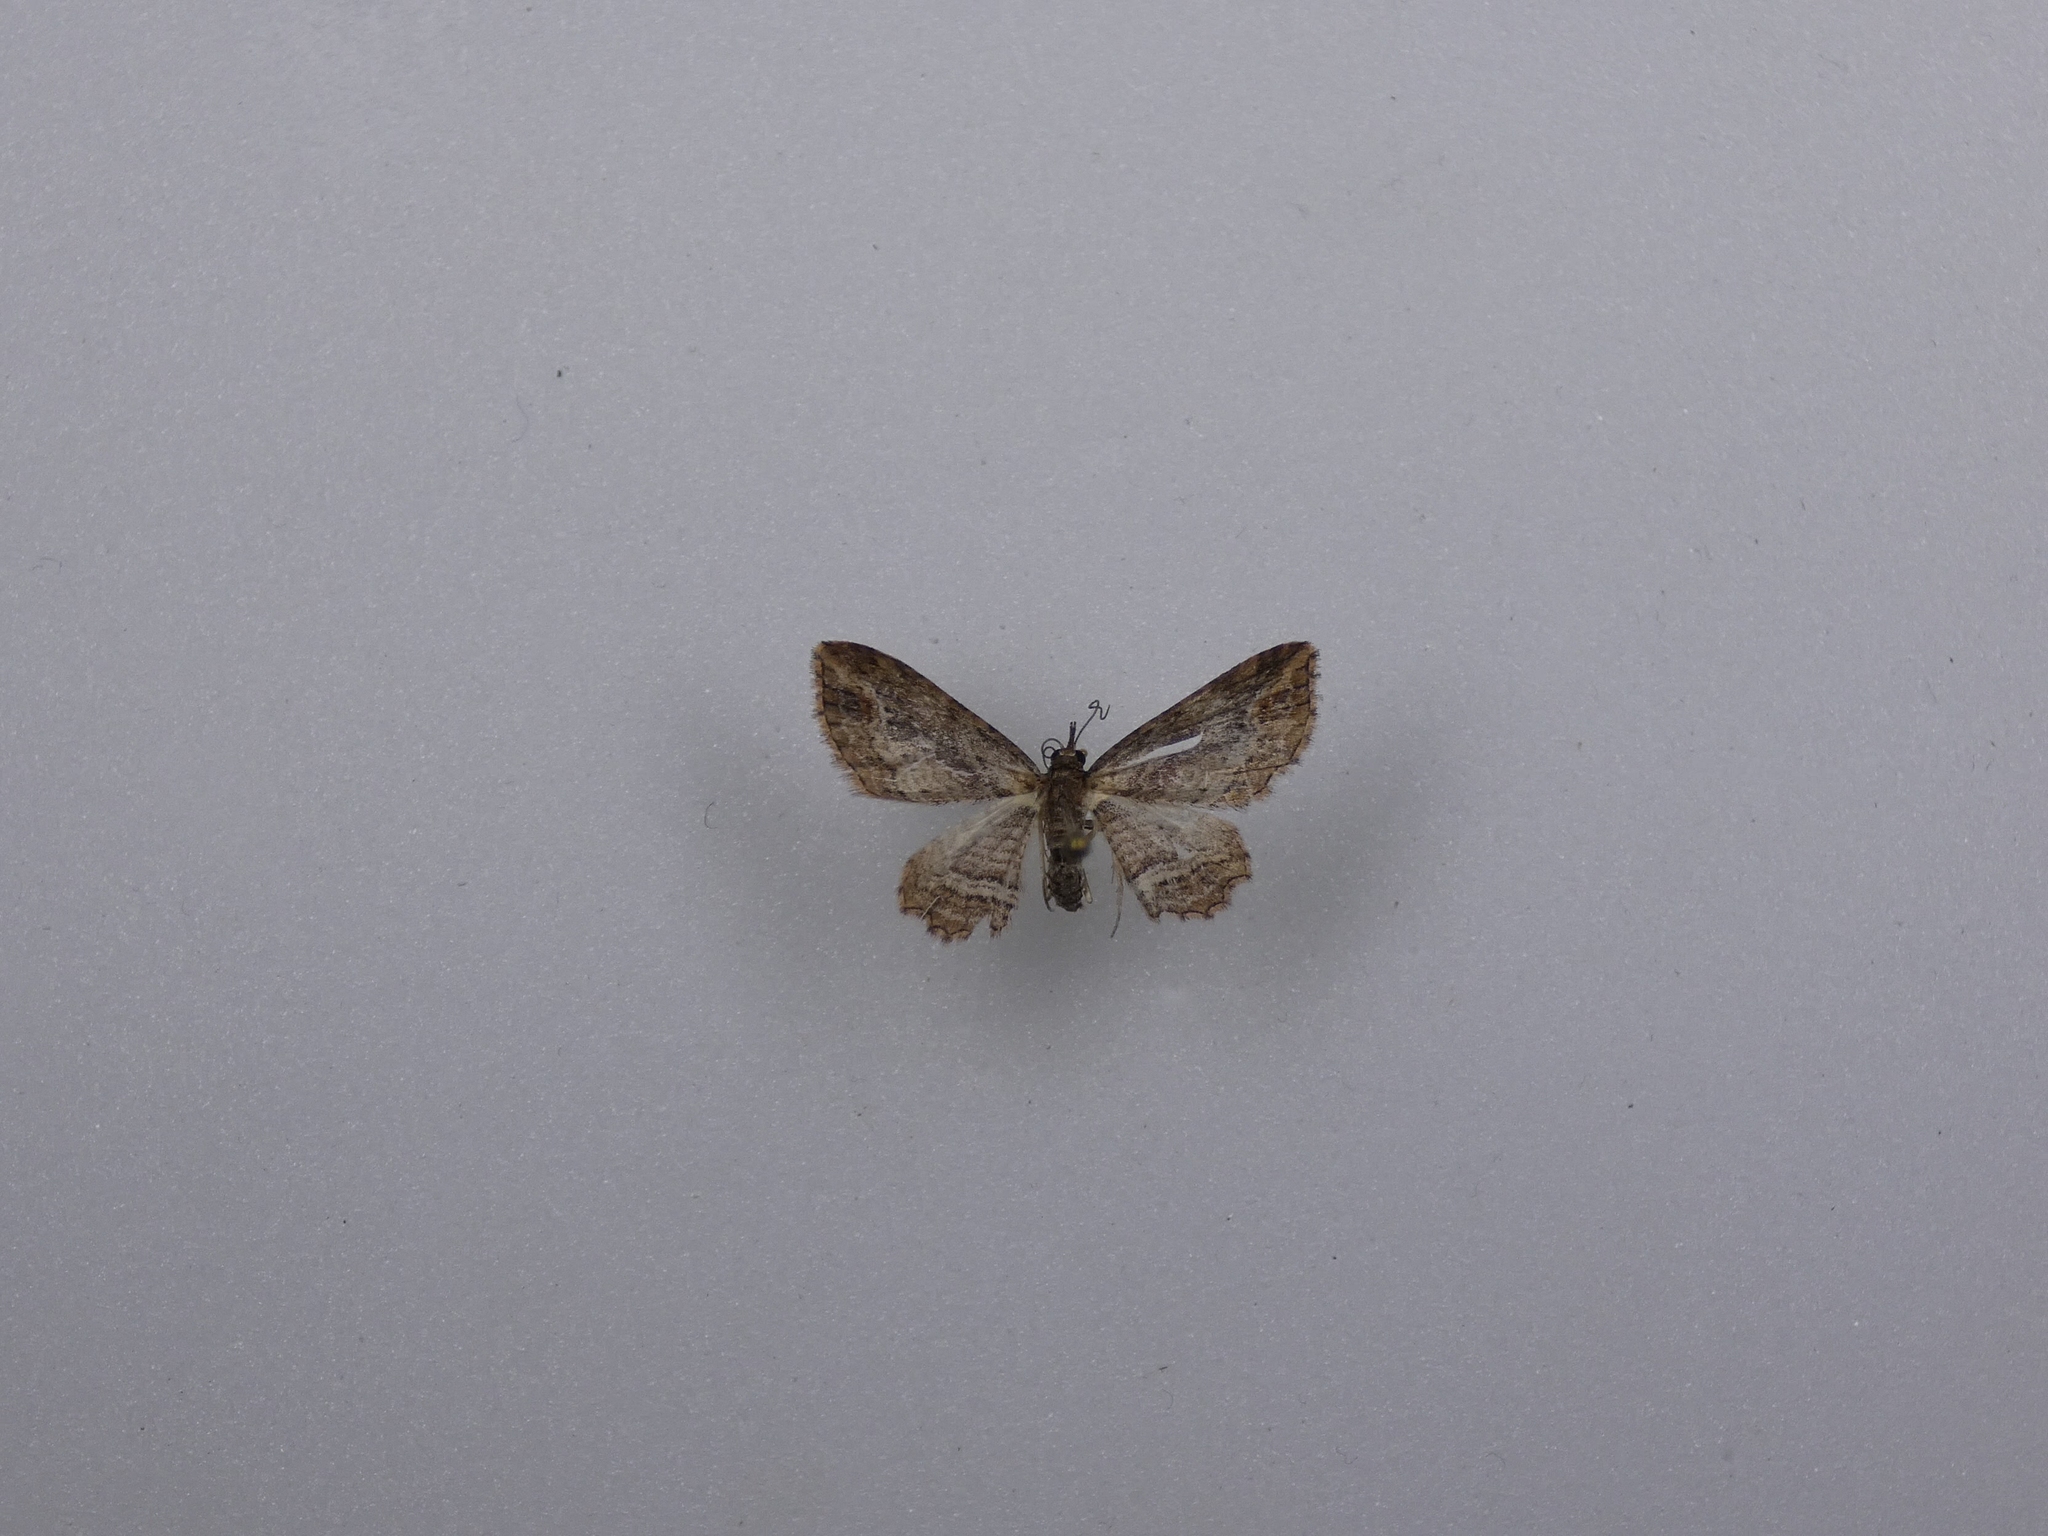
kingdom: Animalia
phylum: Arthropoda
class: Insecta
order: Lepidoptera
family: Geometridae
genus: Chloroclystis
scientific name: Chloroclystis filata
